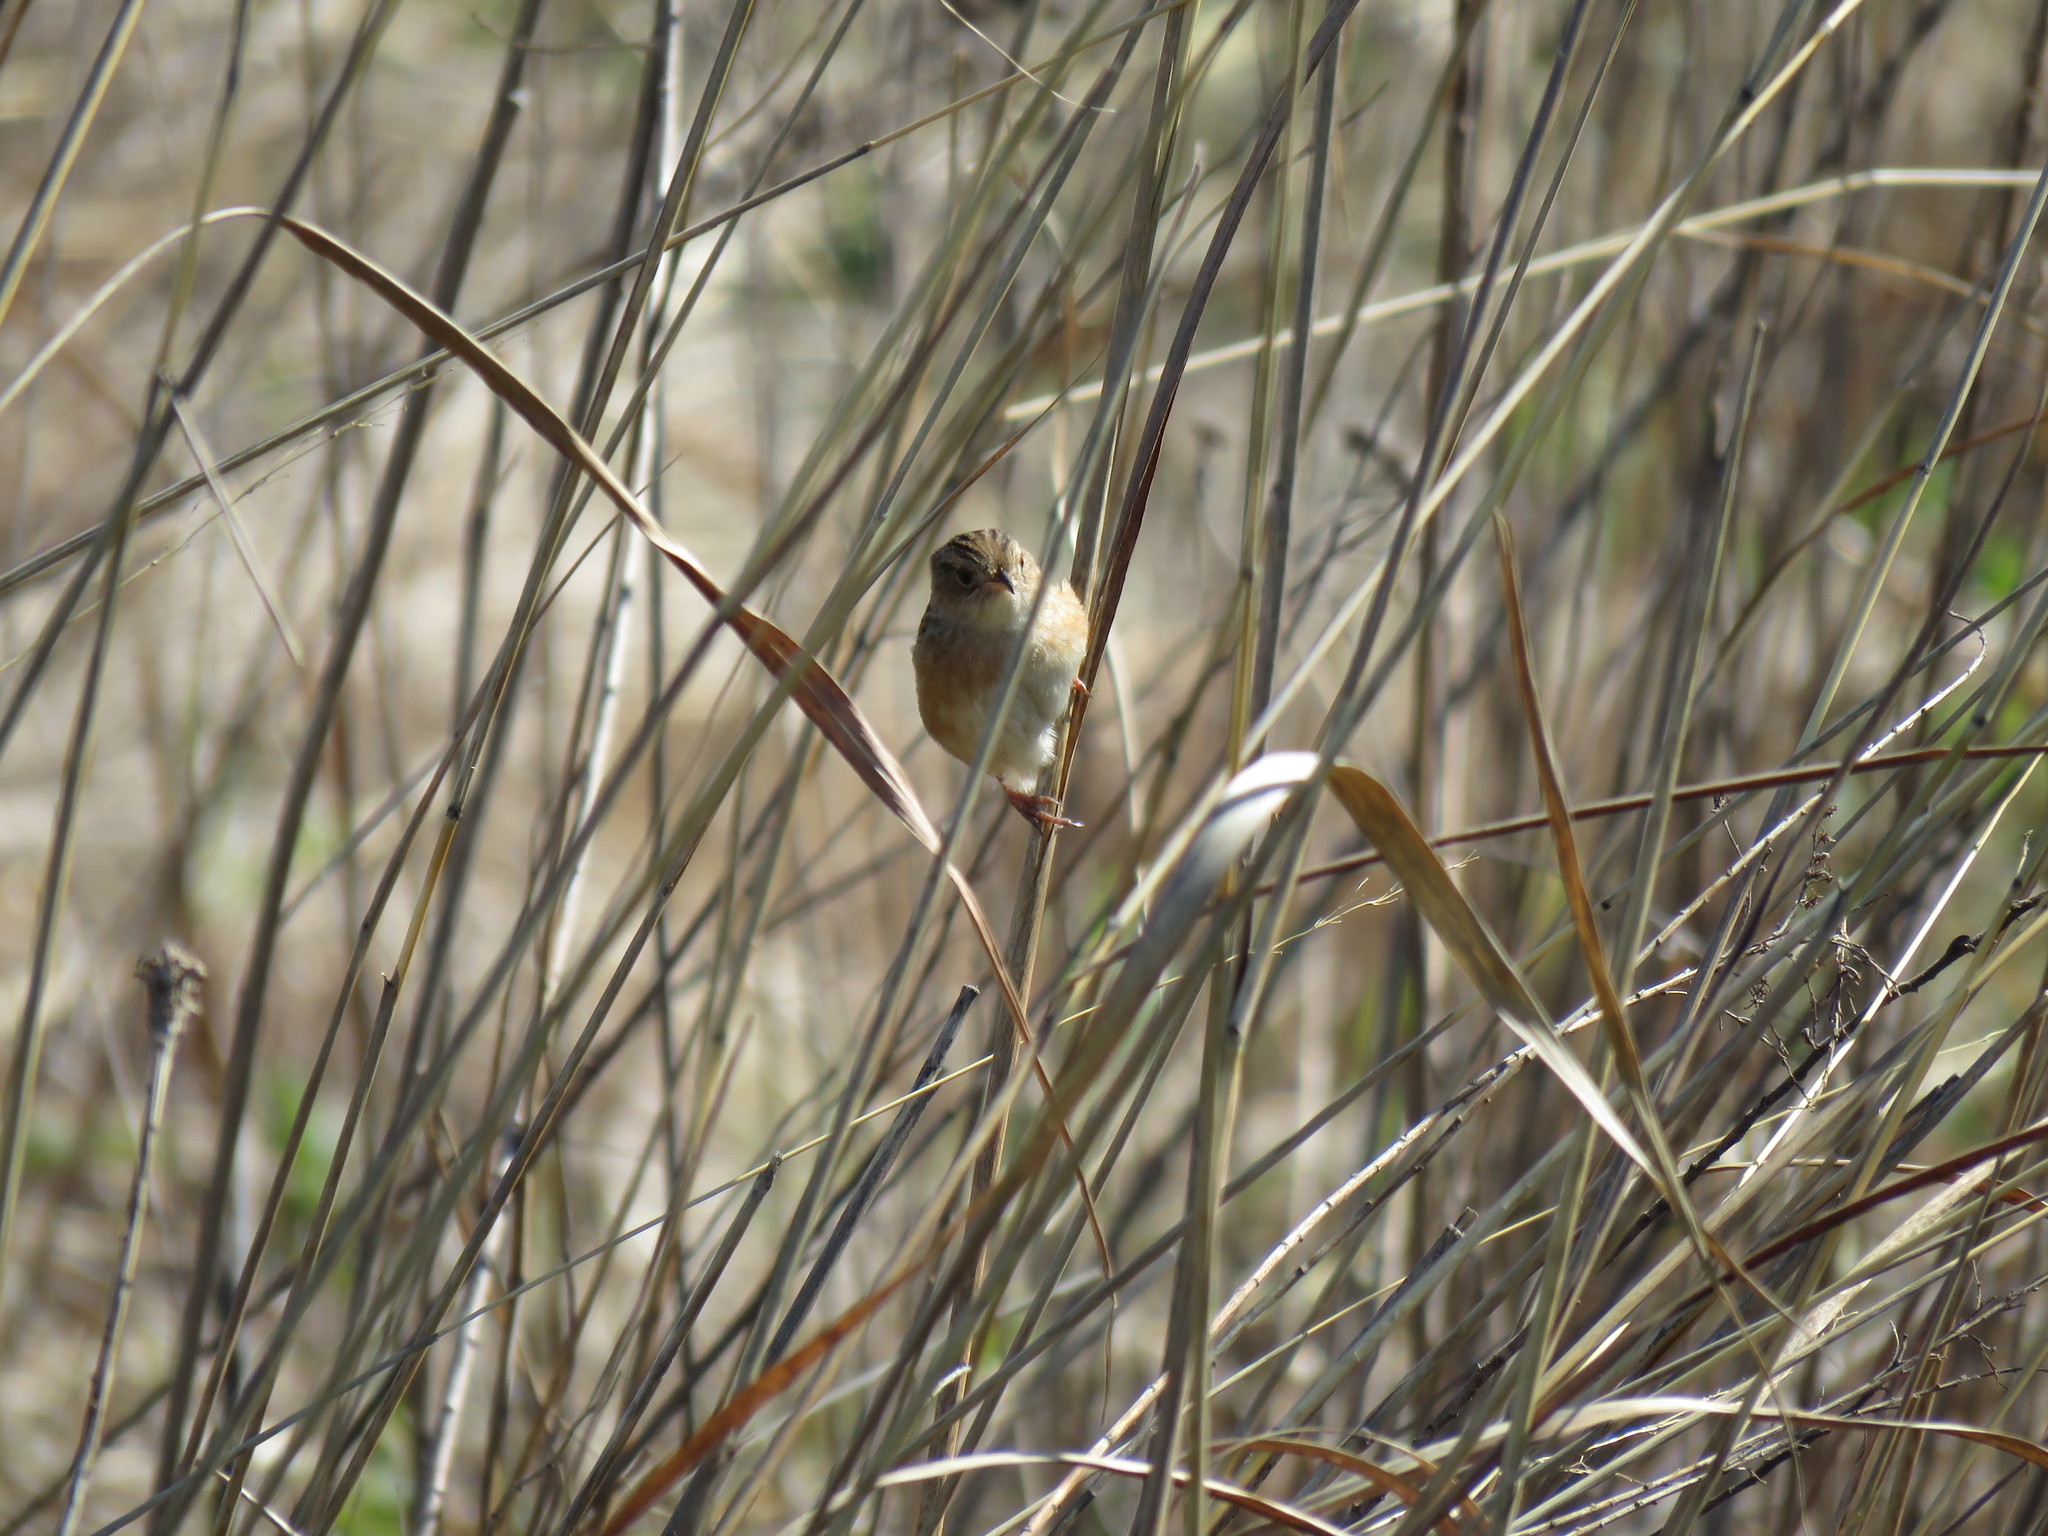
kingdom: Animalia
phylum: Chordata
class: Aves
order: Passeriformes
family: Troglodytidae
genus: Cistothorus
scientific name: Cistothorus platensis
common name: Sedge wren
